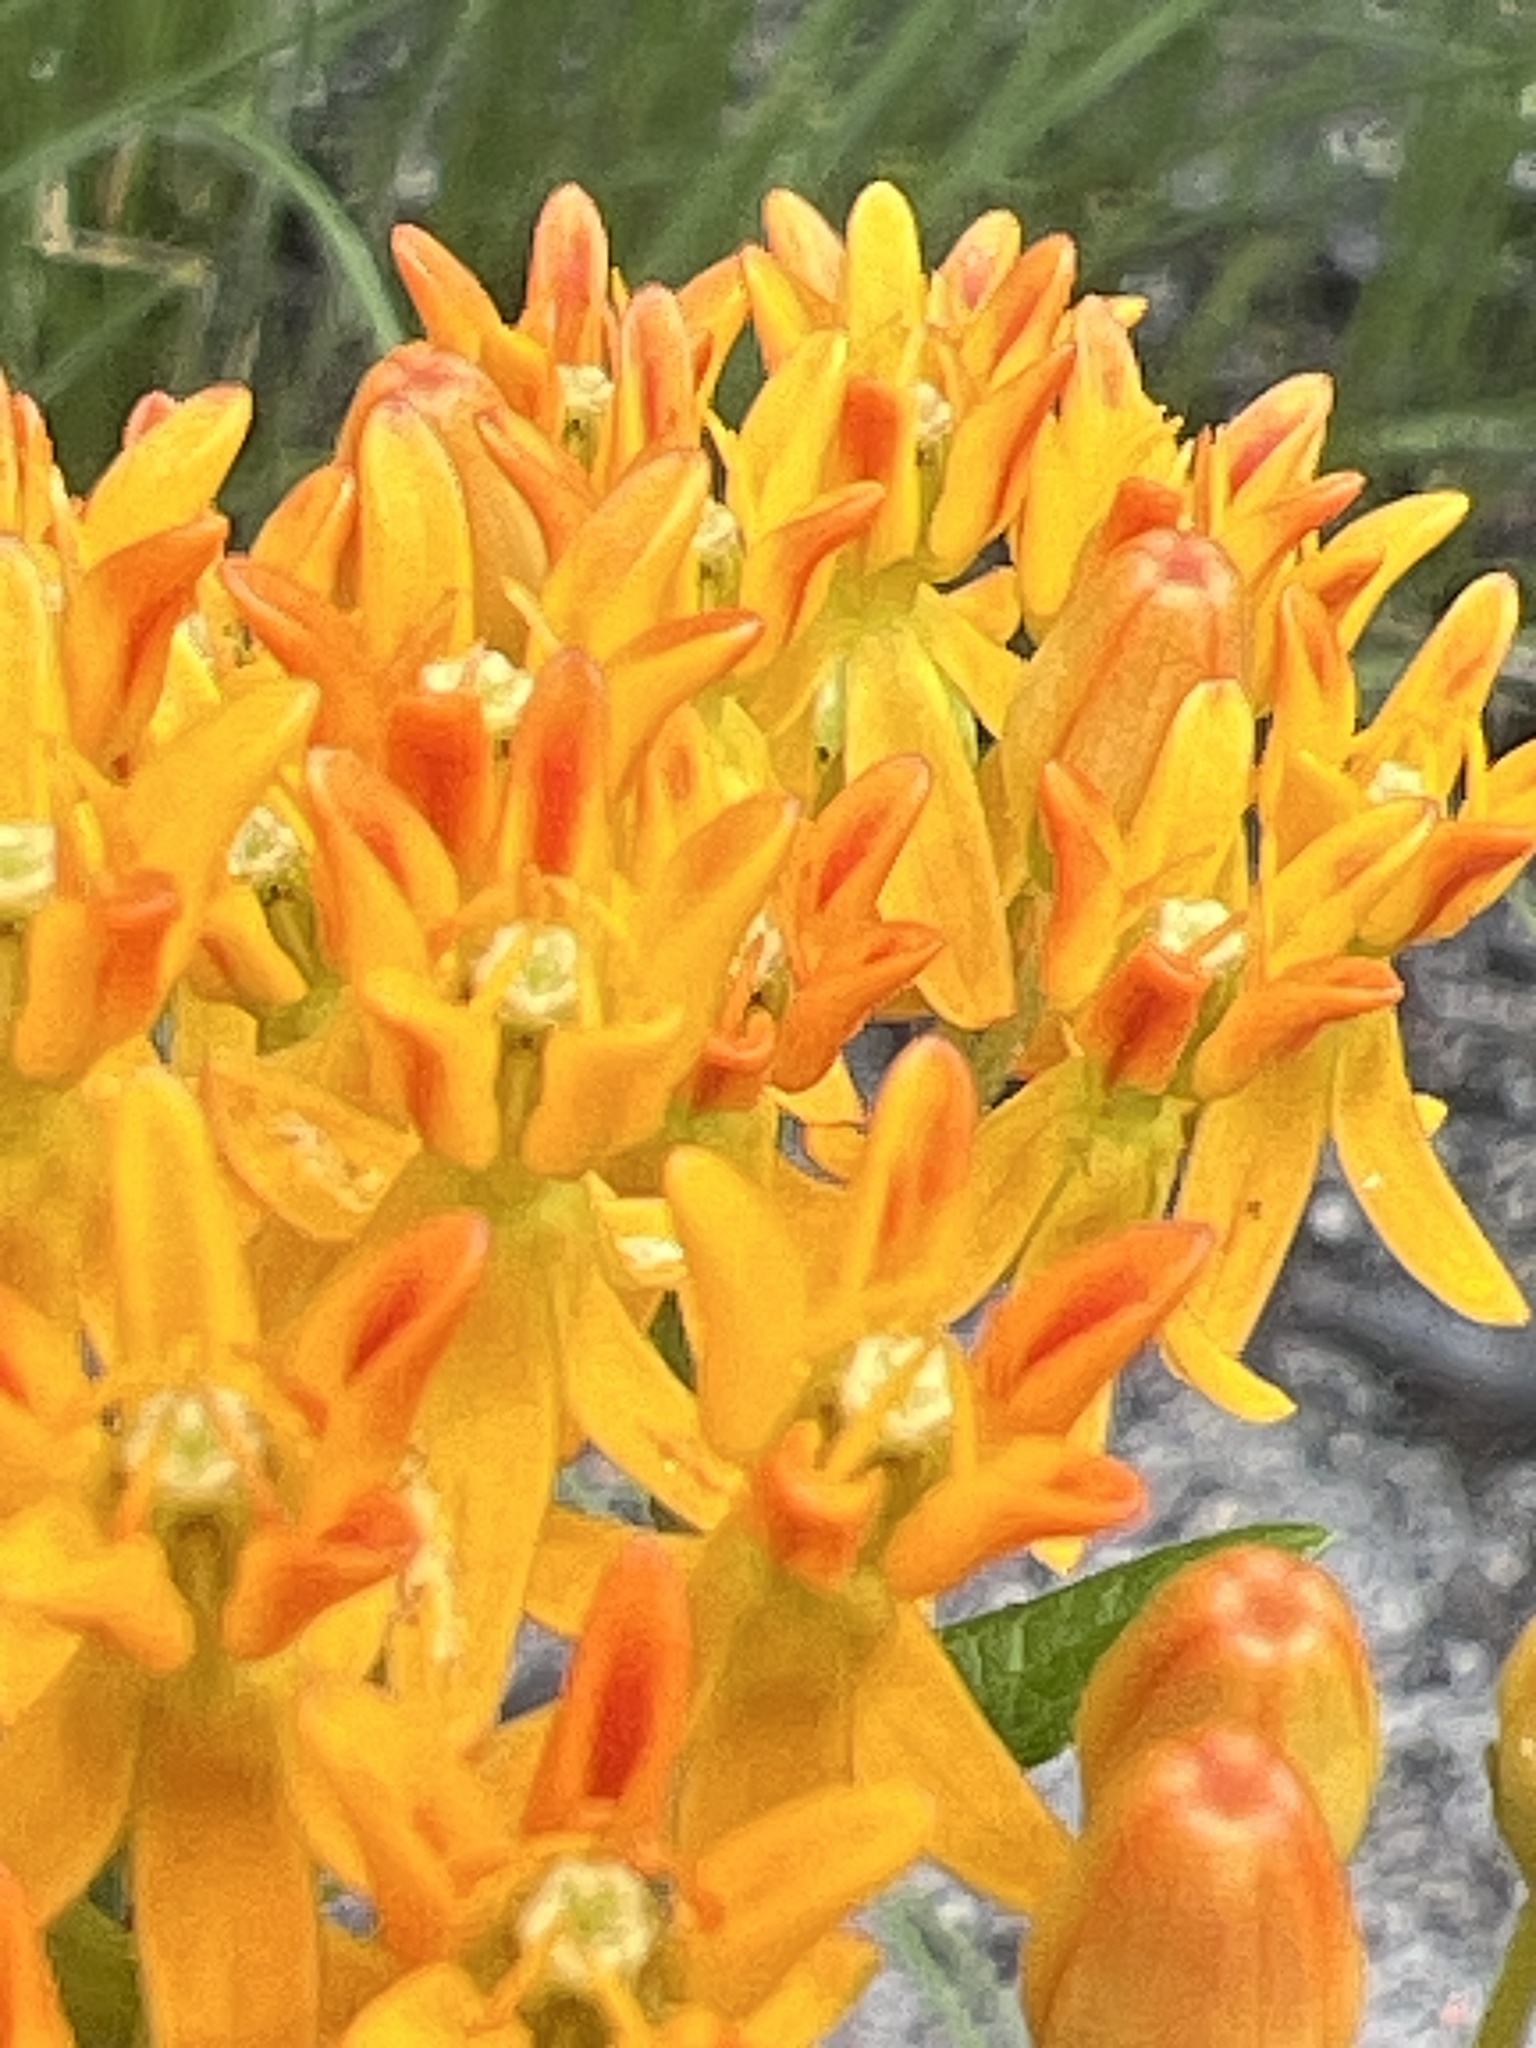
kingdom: Plantae
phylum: Tracheophyta
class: Magnoliopsida
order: Gentianales
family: Apocynaceae
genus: Asclepias
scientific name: Asclepias tuberosa
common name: Butterfly milkweed
